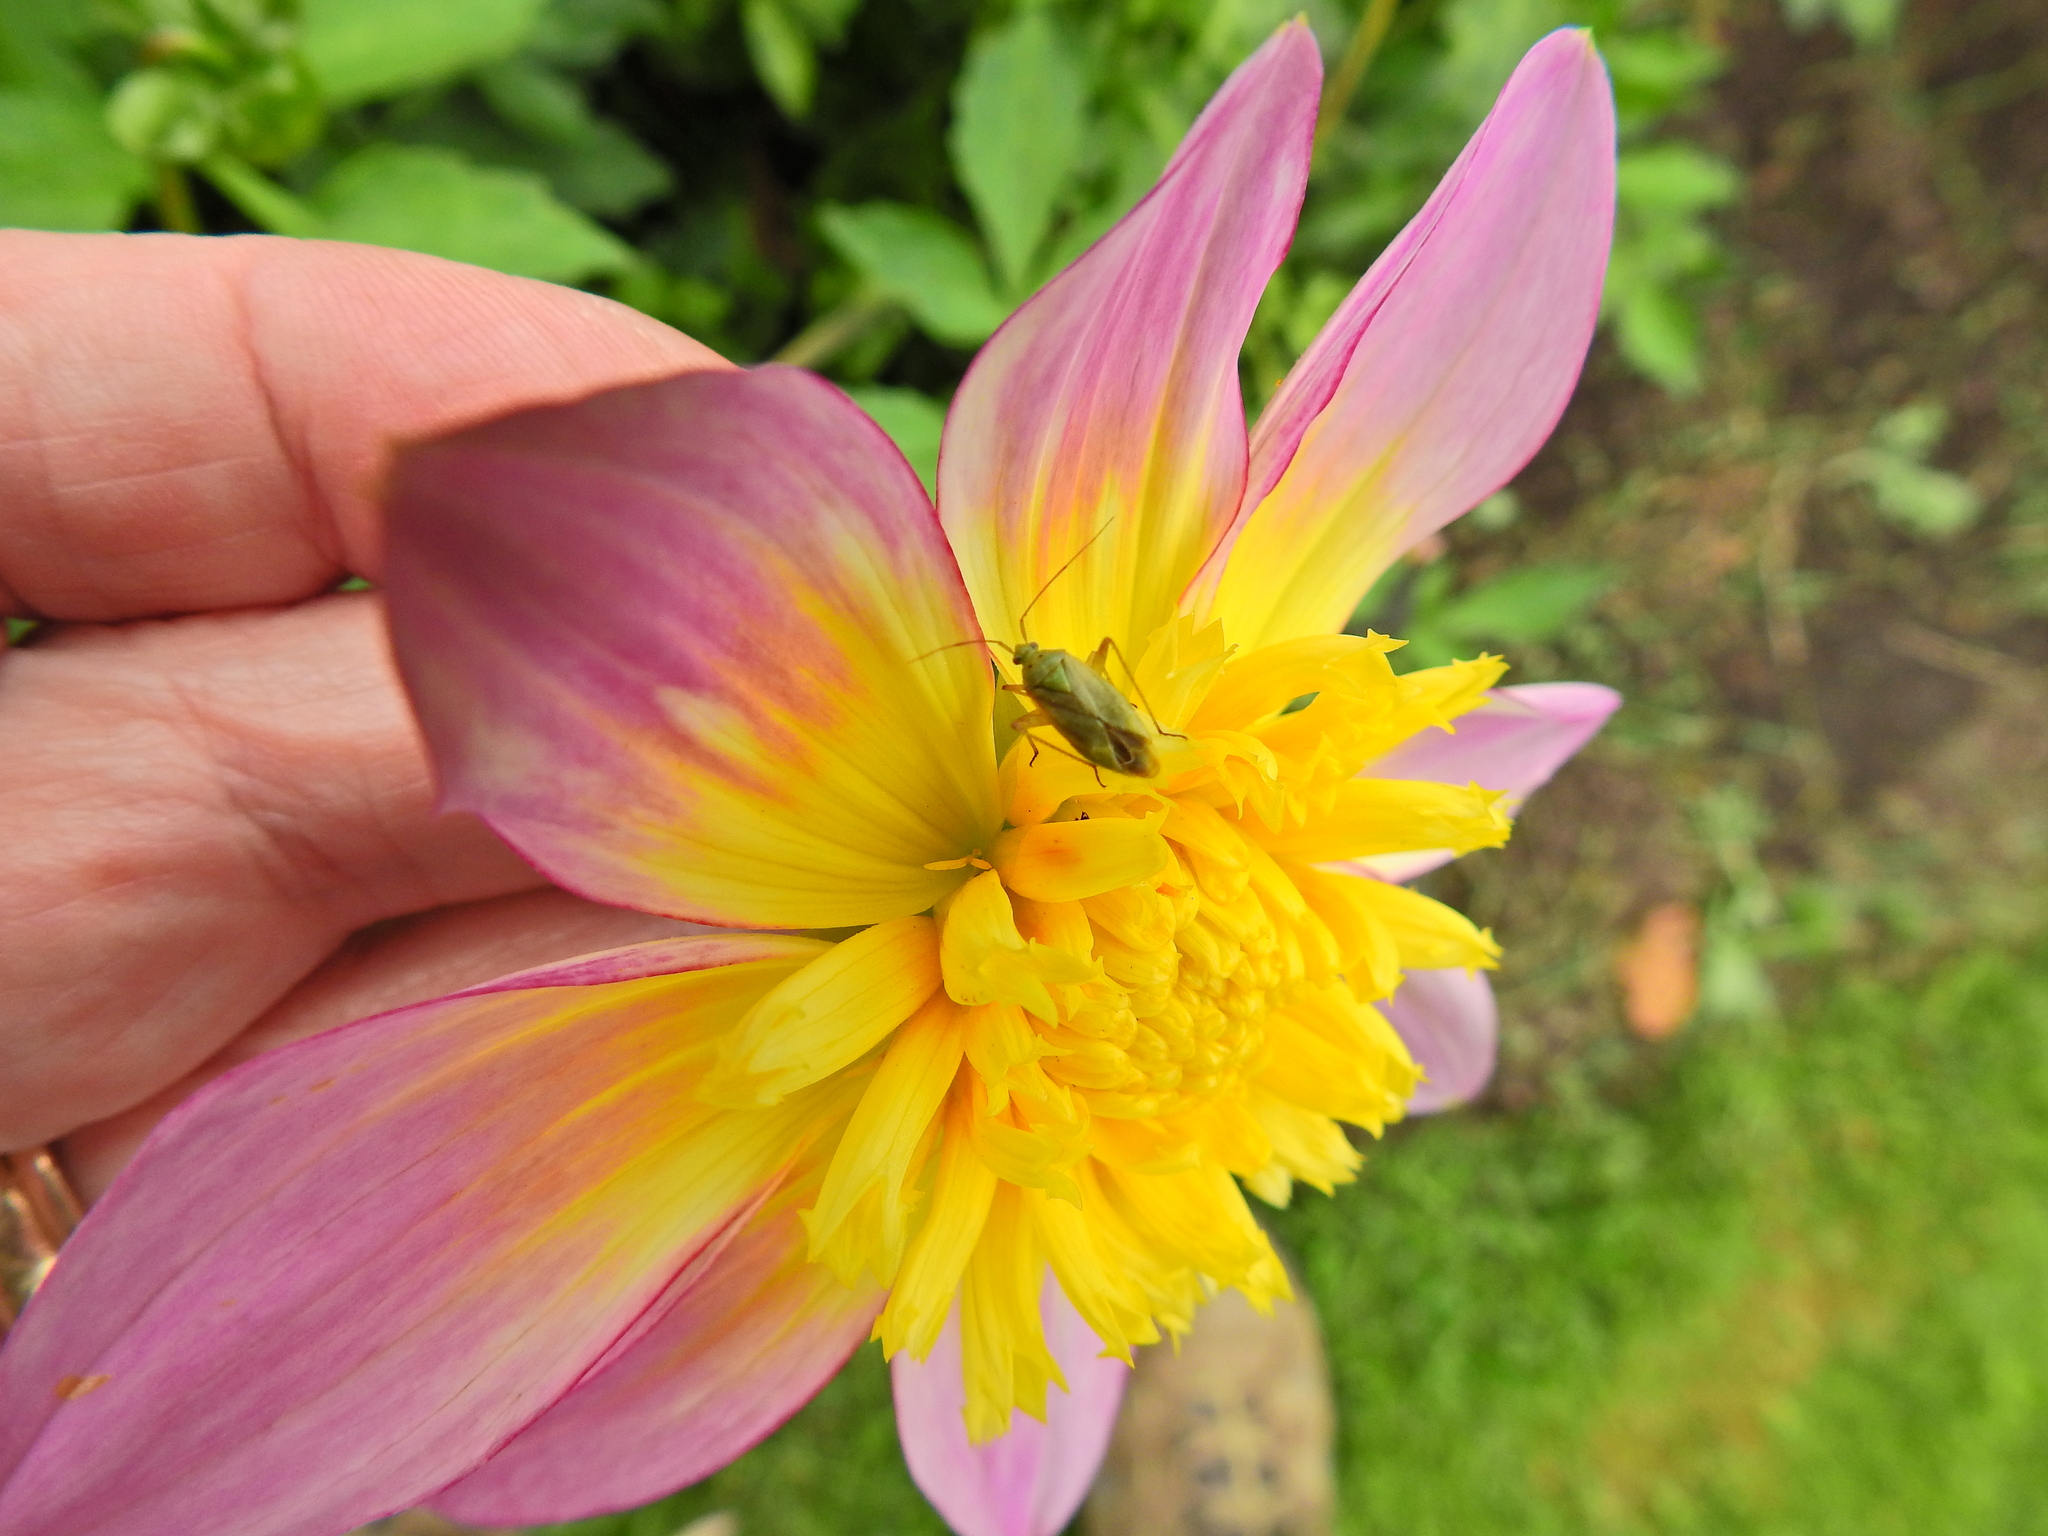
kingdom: Animalia
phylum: Arthropoda
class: Insecta
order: Hemiptera
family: Miridae
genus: Closterotomus
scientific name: Closterotomus norvegicus
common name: Plant bug
